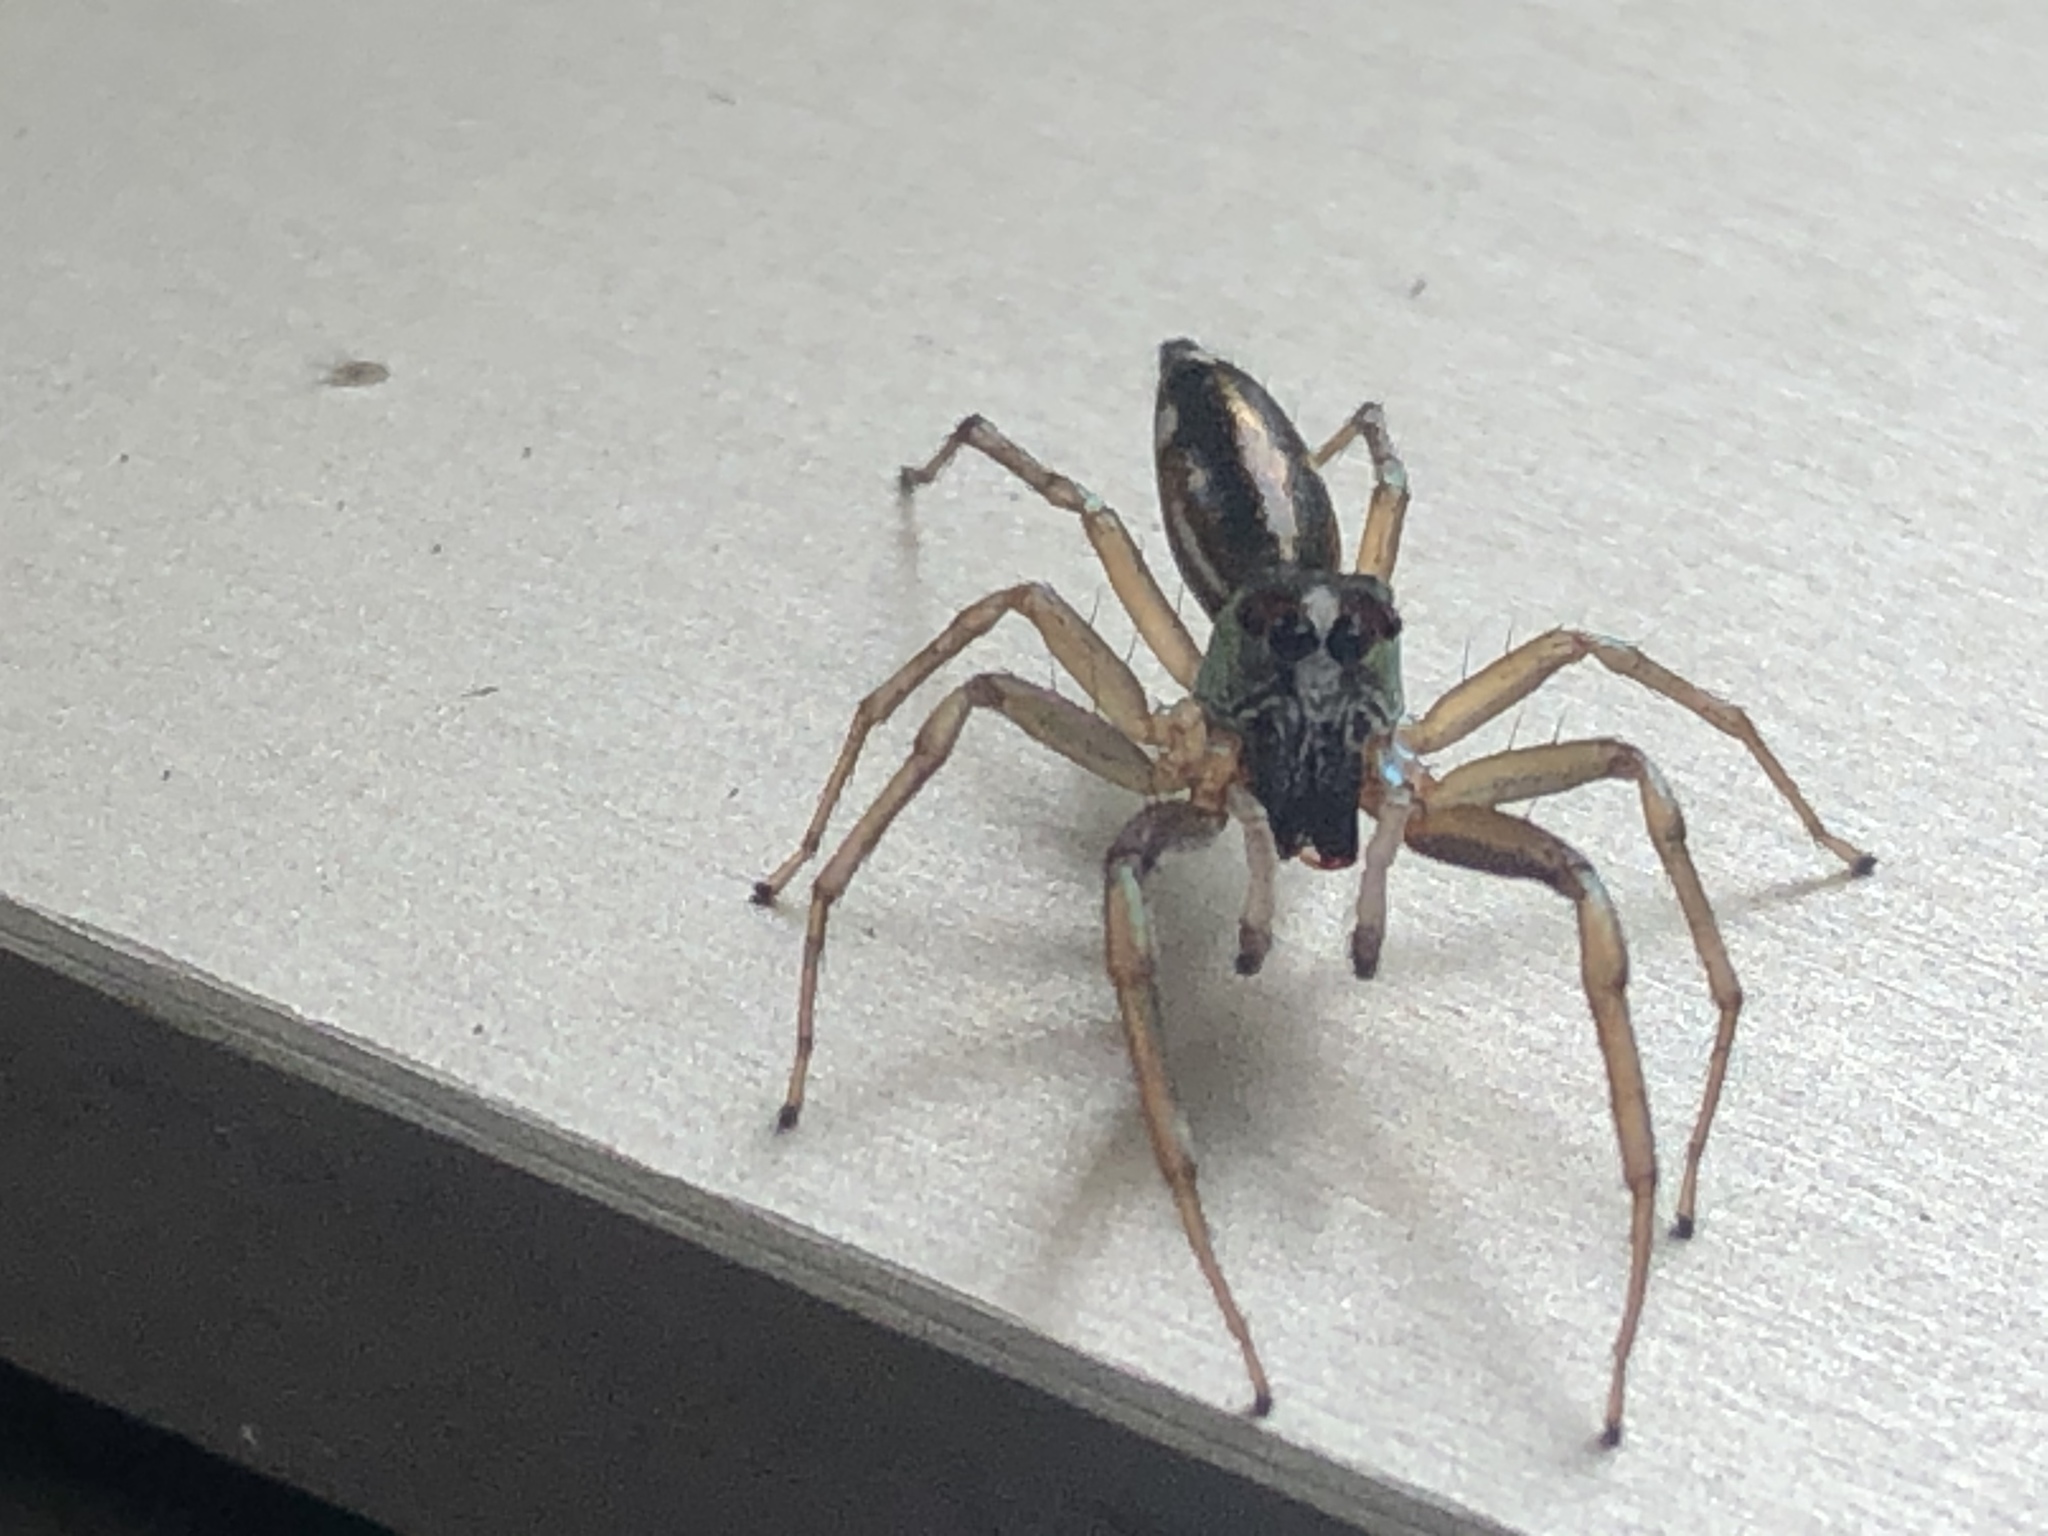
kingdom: Animalia
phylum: Arthropoda
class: Arachnida
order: Araneae
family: Salticidae
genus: Cosmophasis
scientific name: Cosmophasis baehrae
